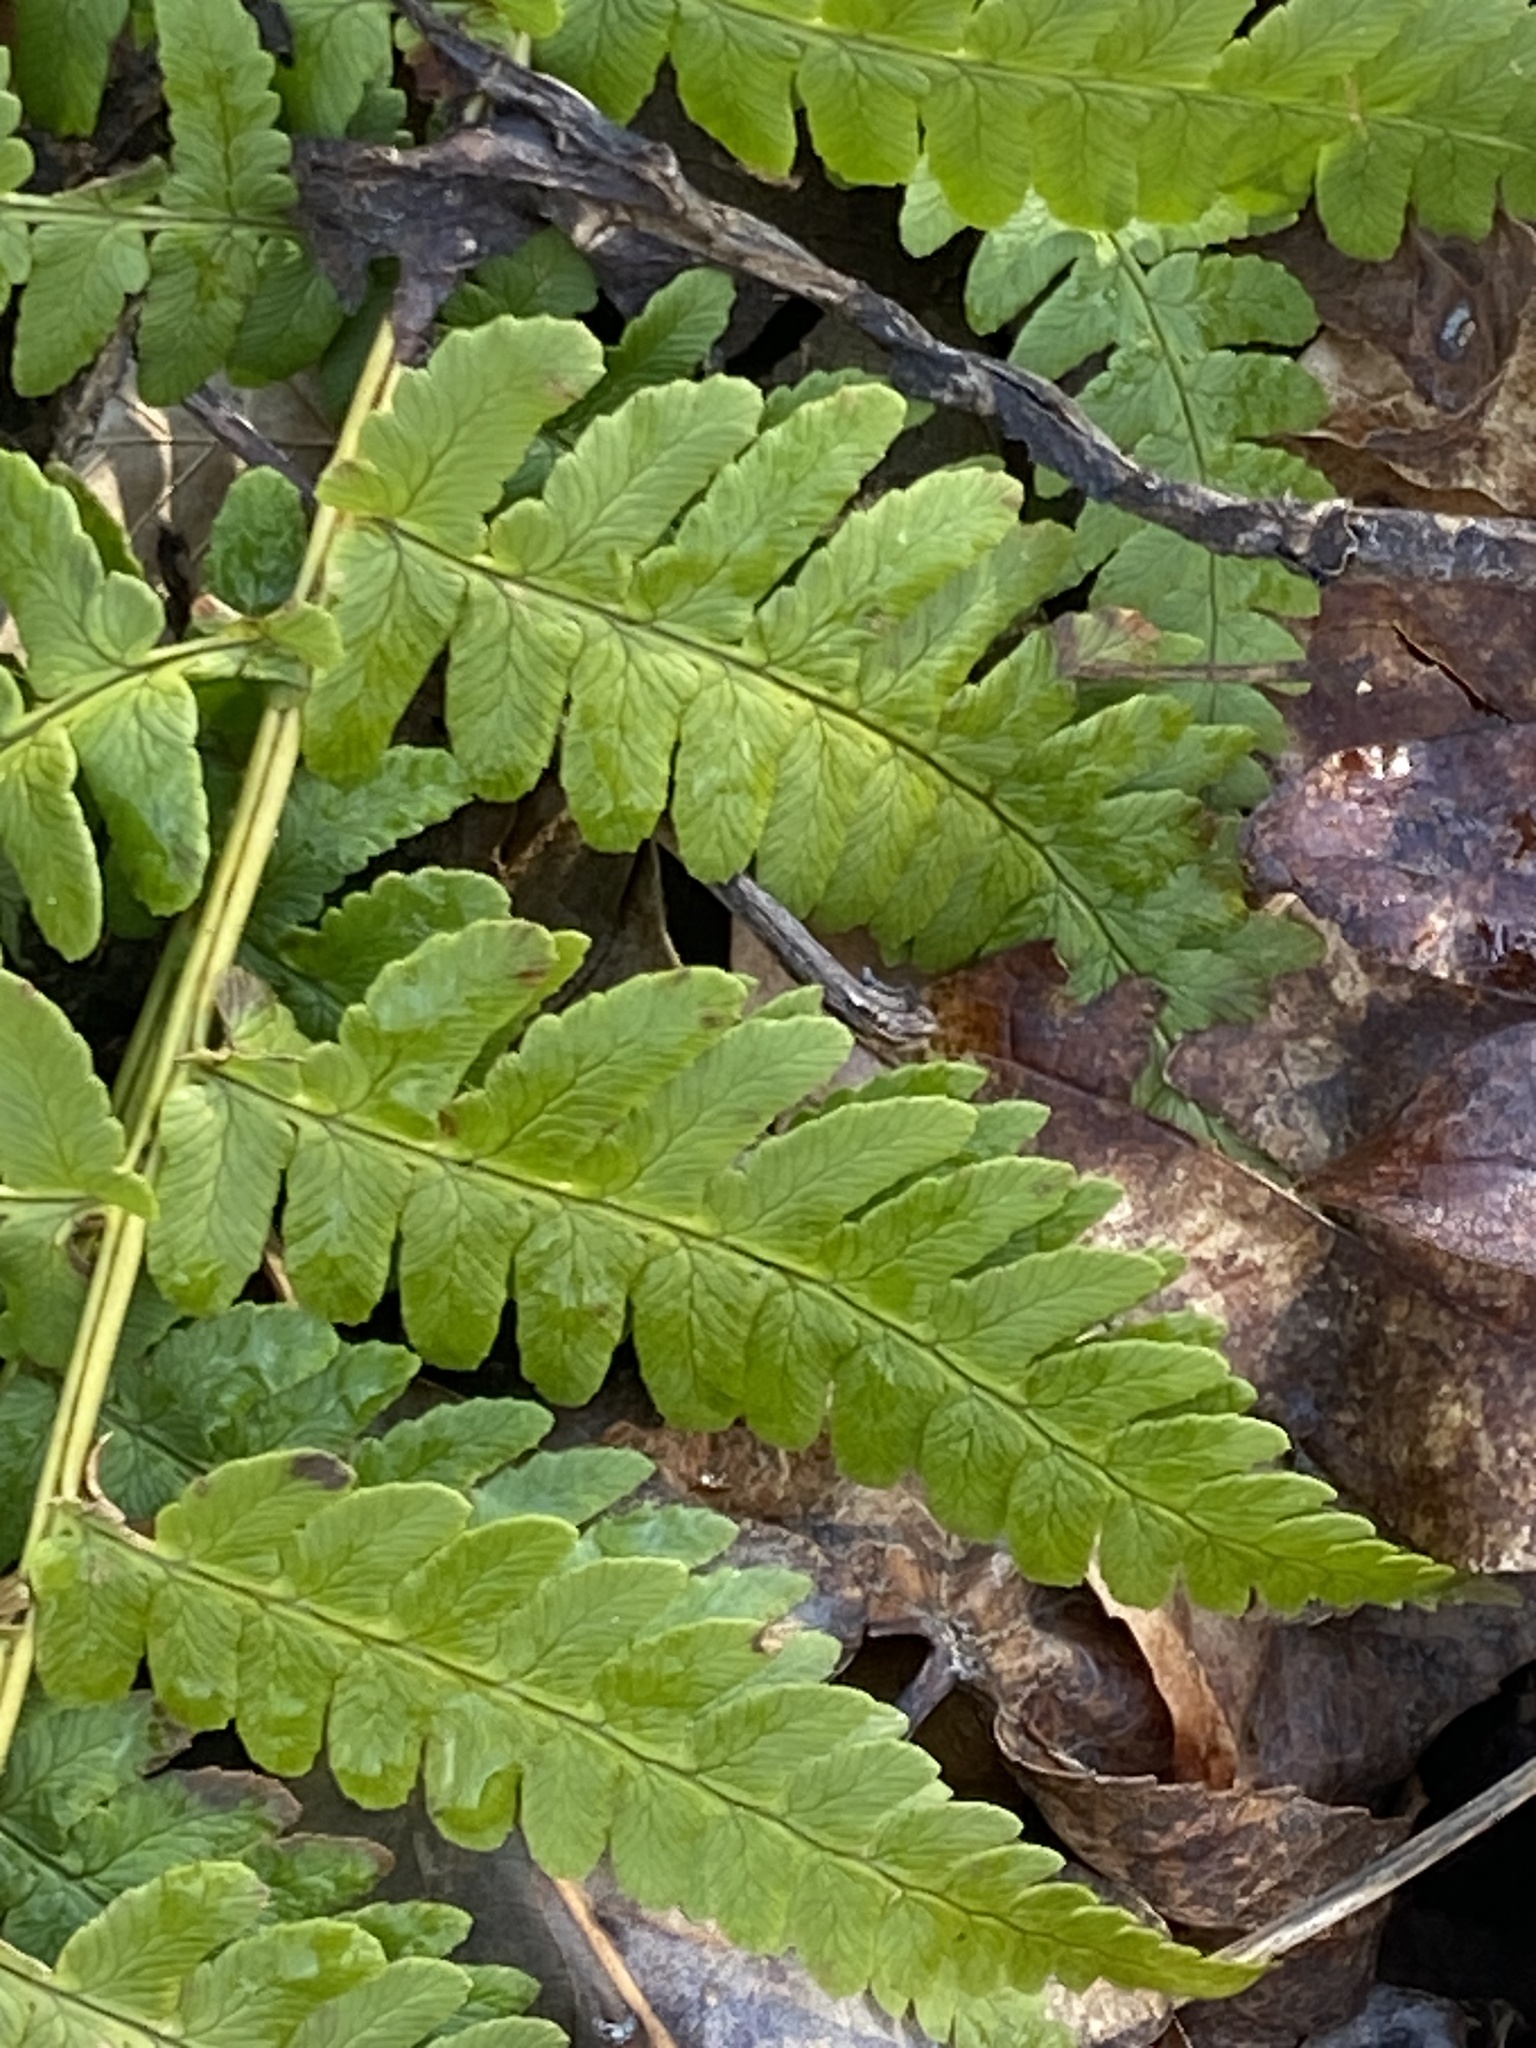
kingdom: Plantae
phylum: Tracheophyta
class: Polypodiopsida
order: Polypodiales
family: Dryopteridaceae
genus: Dryopteris
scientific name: Dryopteris marginalis
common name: Marginal wood fern
